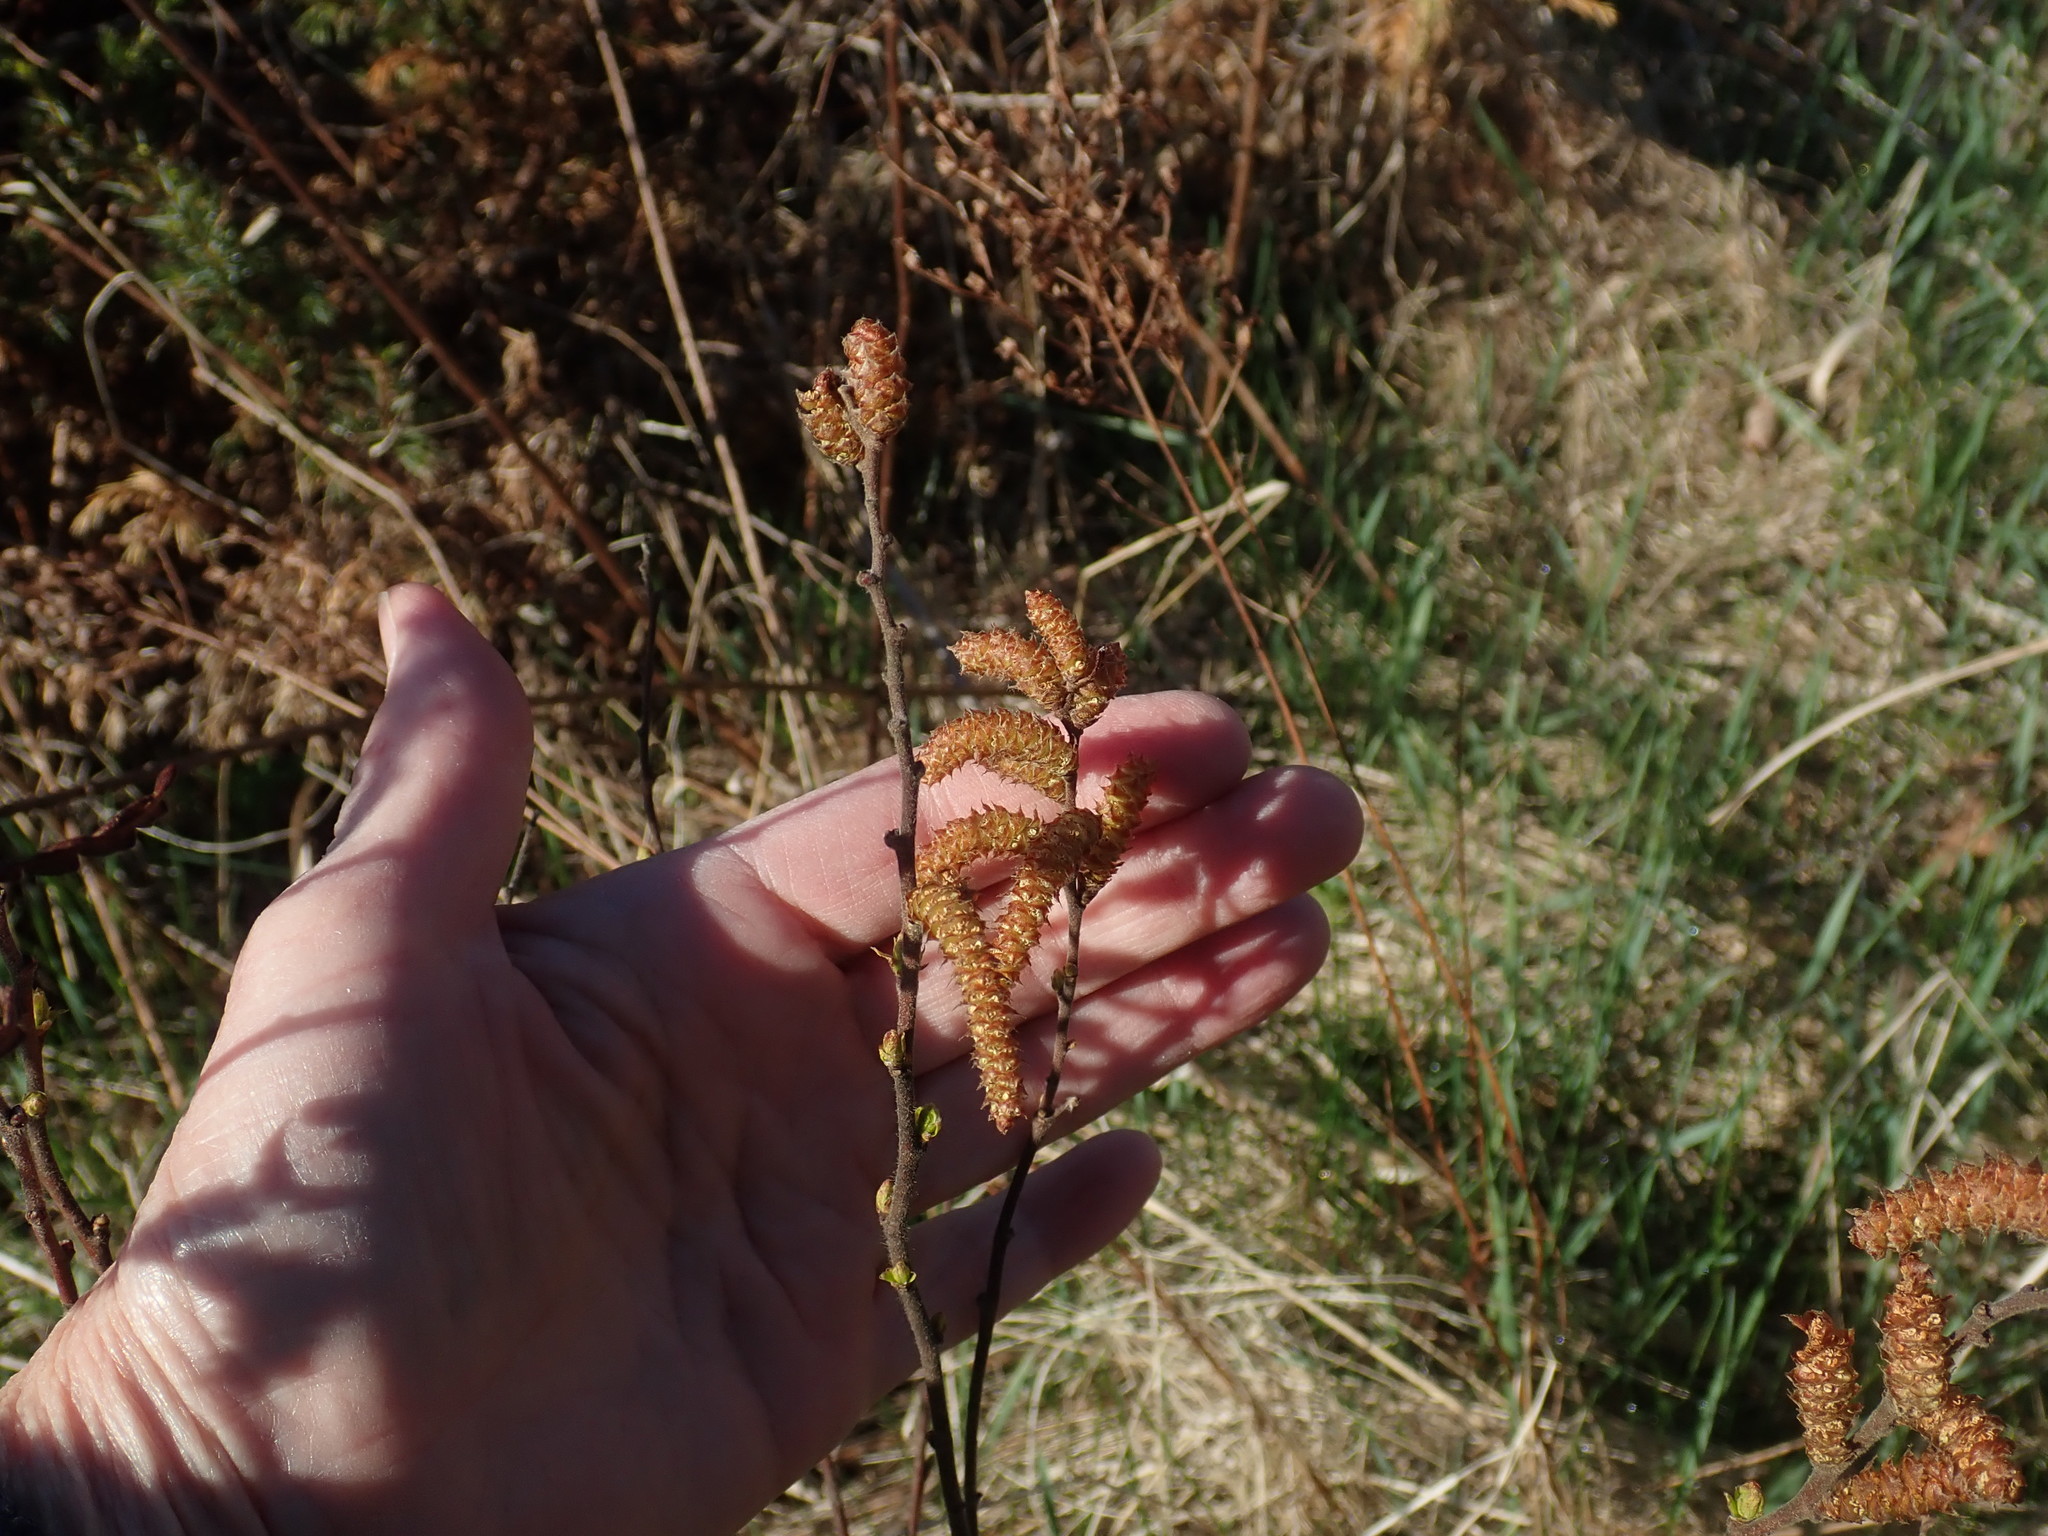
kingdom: Plantae
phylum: Tracheophyta
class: Magnoliopsida
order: Fagales
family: Myricaceae
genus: Myrica
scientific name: Myrica gale
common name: Sweet gale
